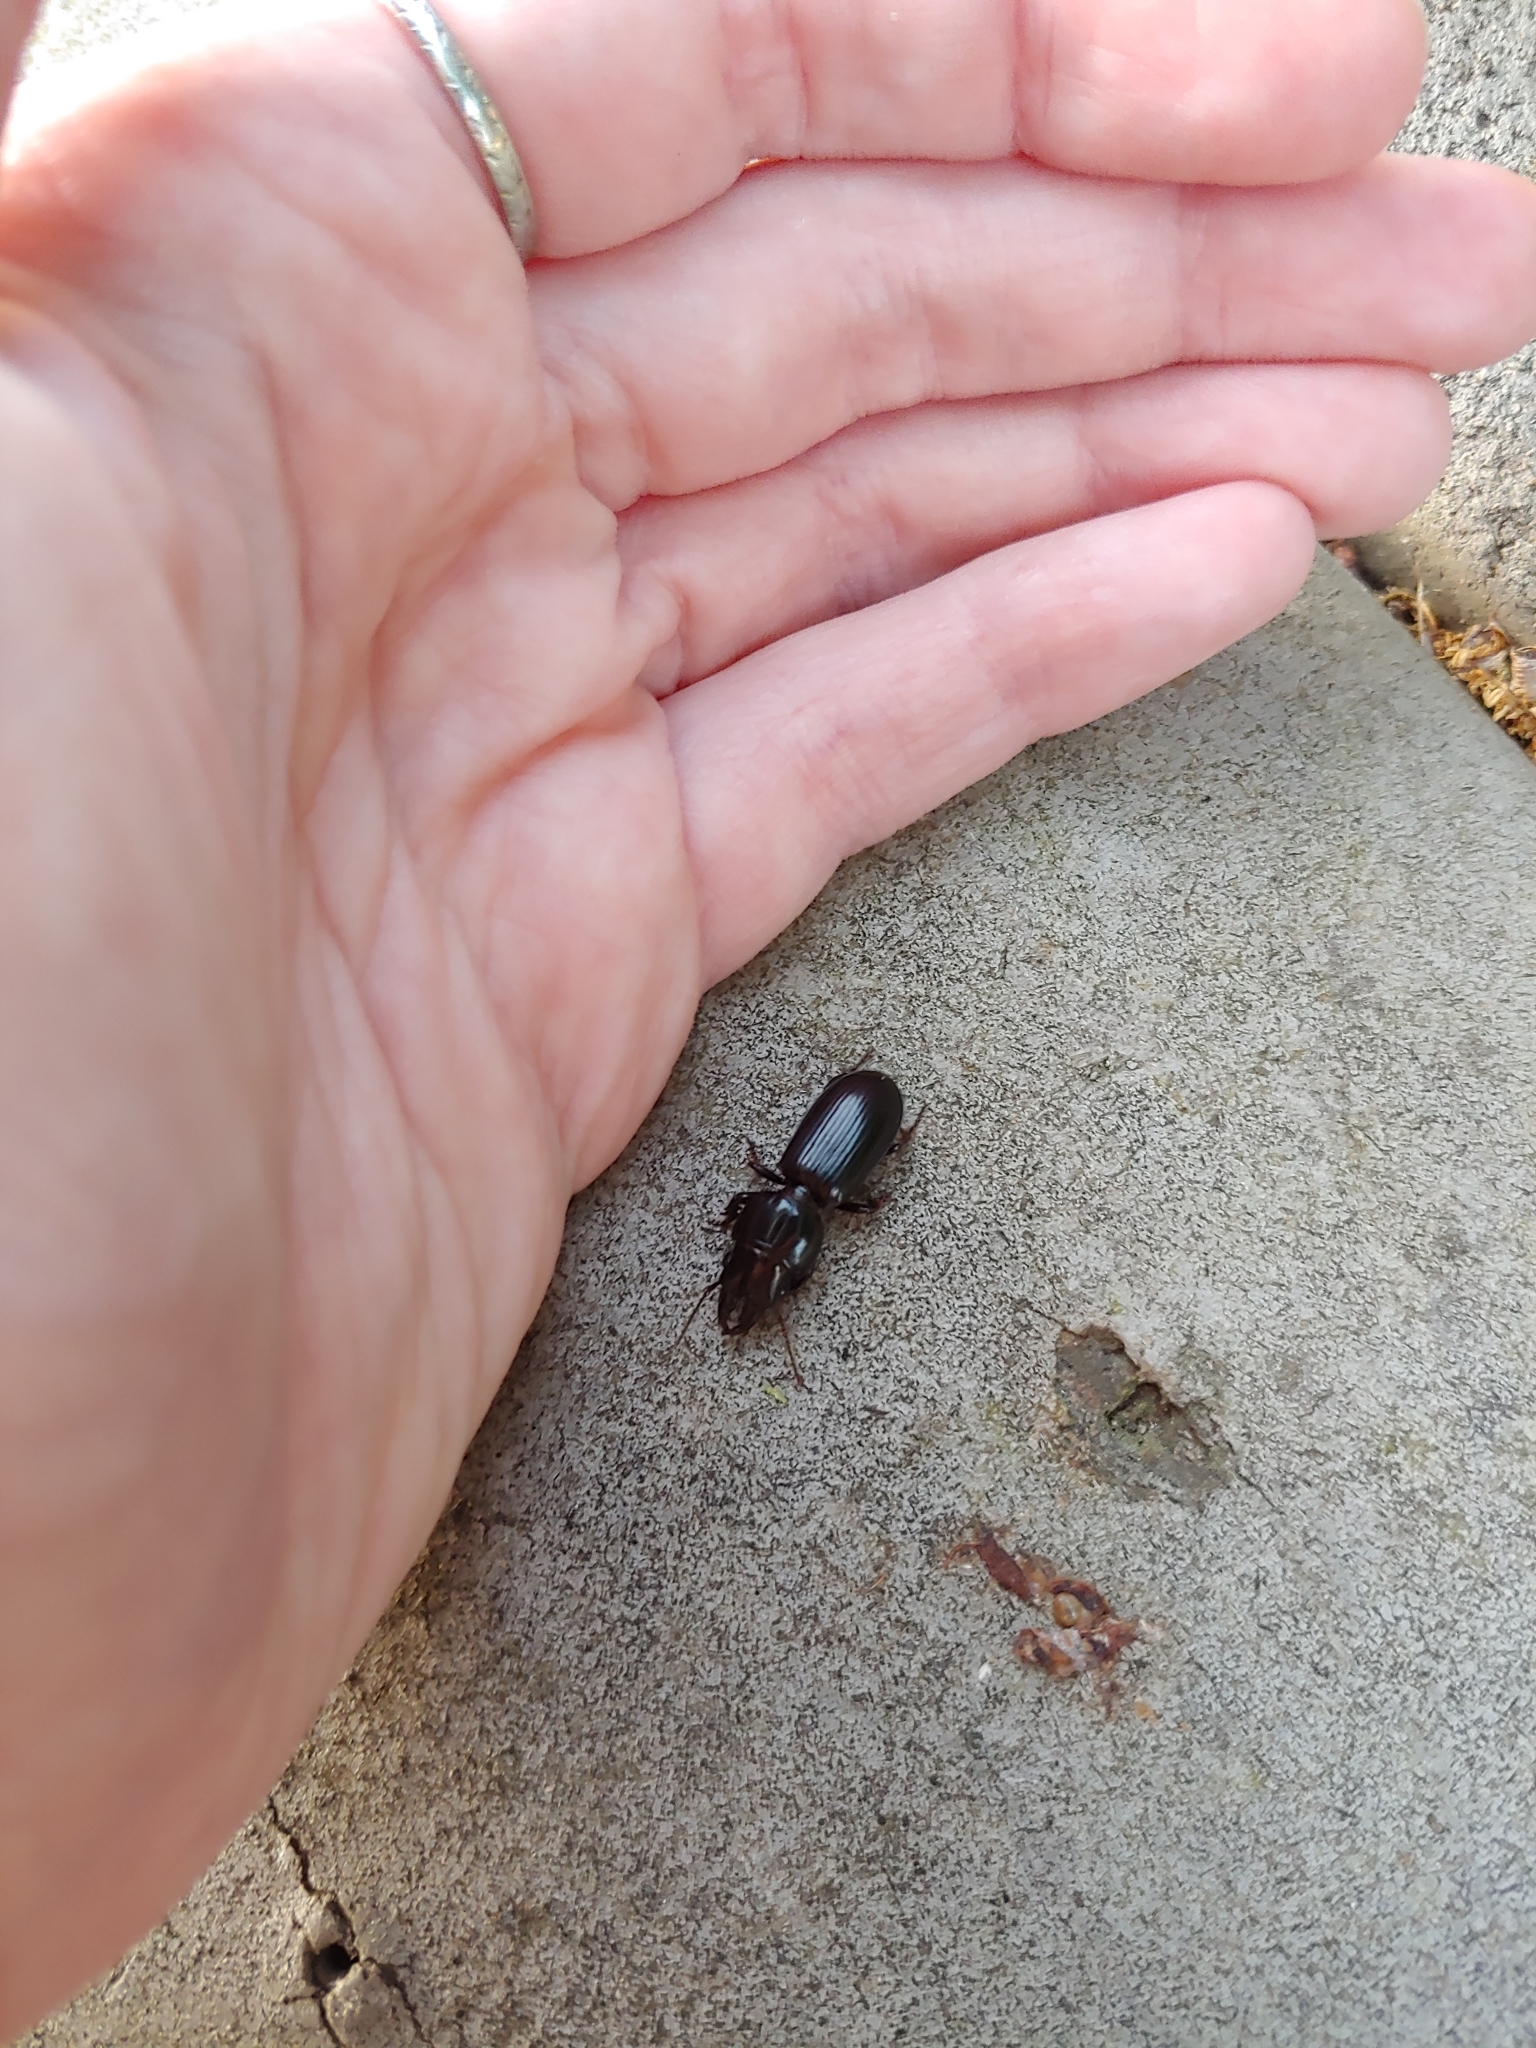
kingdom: Animalia
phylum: Arthropoda
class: Insecta
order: Coleoptera
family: Carabidae
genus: Scarites
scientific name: Scarites subterraneus
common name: Big-headed ground beetle
